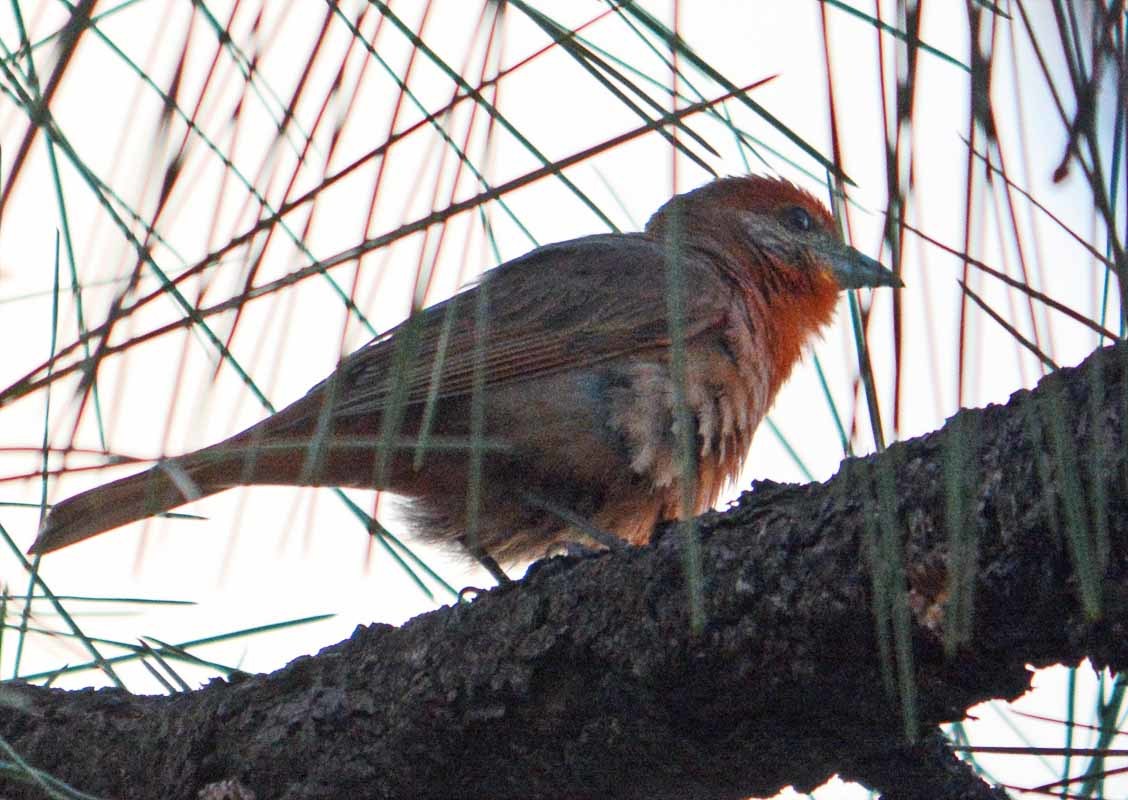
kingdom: Animalia
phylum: Chordata
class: Aves
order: Passeriformes
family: Cardinalidae
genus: Piranga
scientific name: Piranga flava
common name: Red tanager
